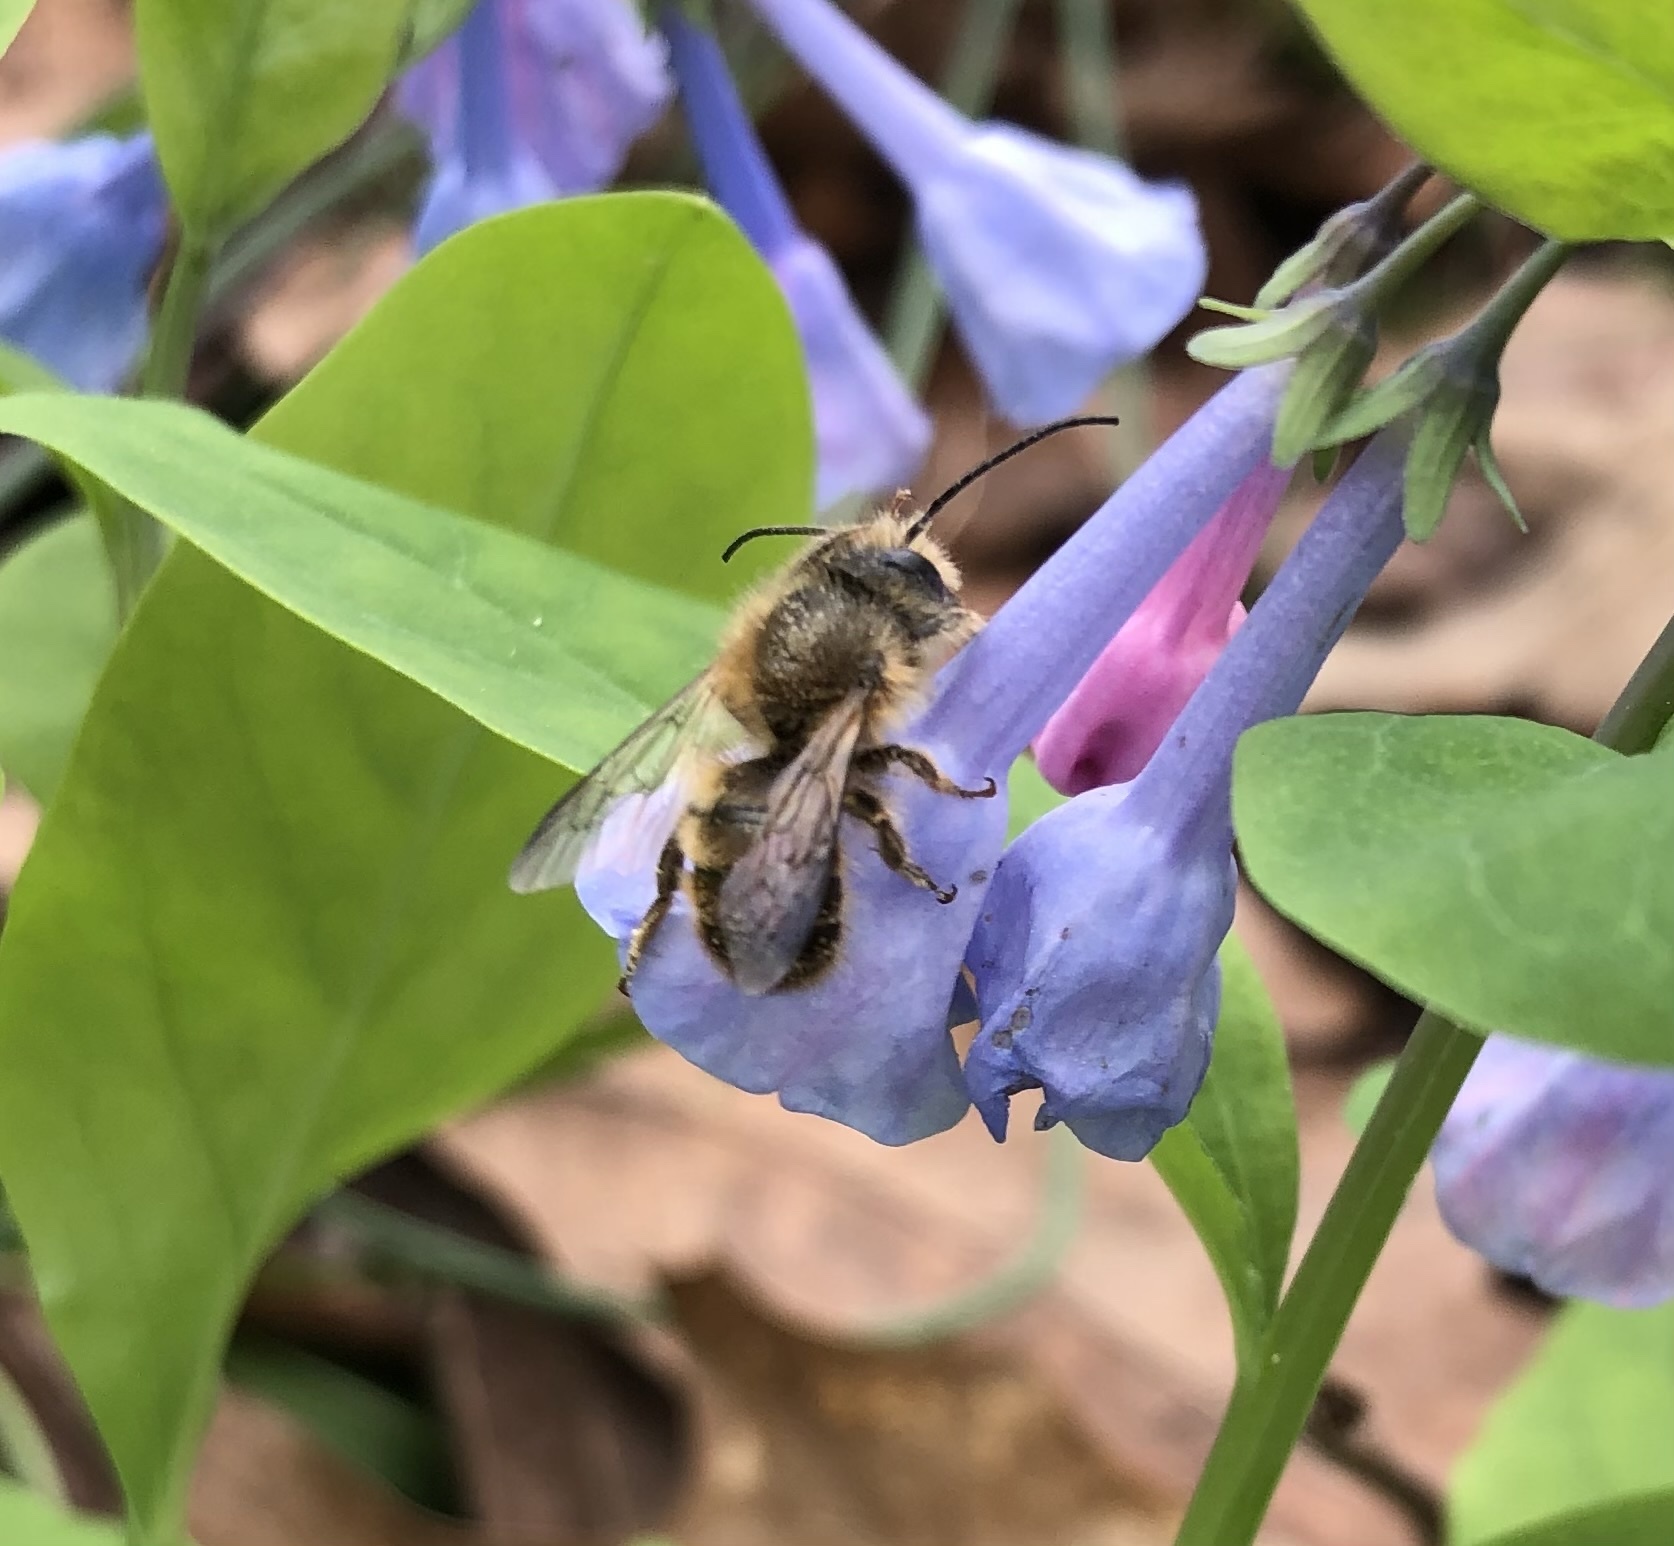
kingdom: Animalia
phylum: Arthropoda
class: Insecta
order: Hymenoptera
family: Megachilidae
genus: Osmia
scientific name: Osmia taurus
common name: Taurus mason bee
